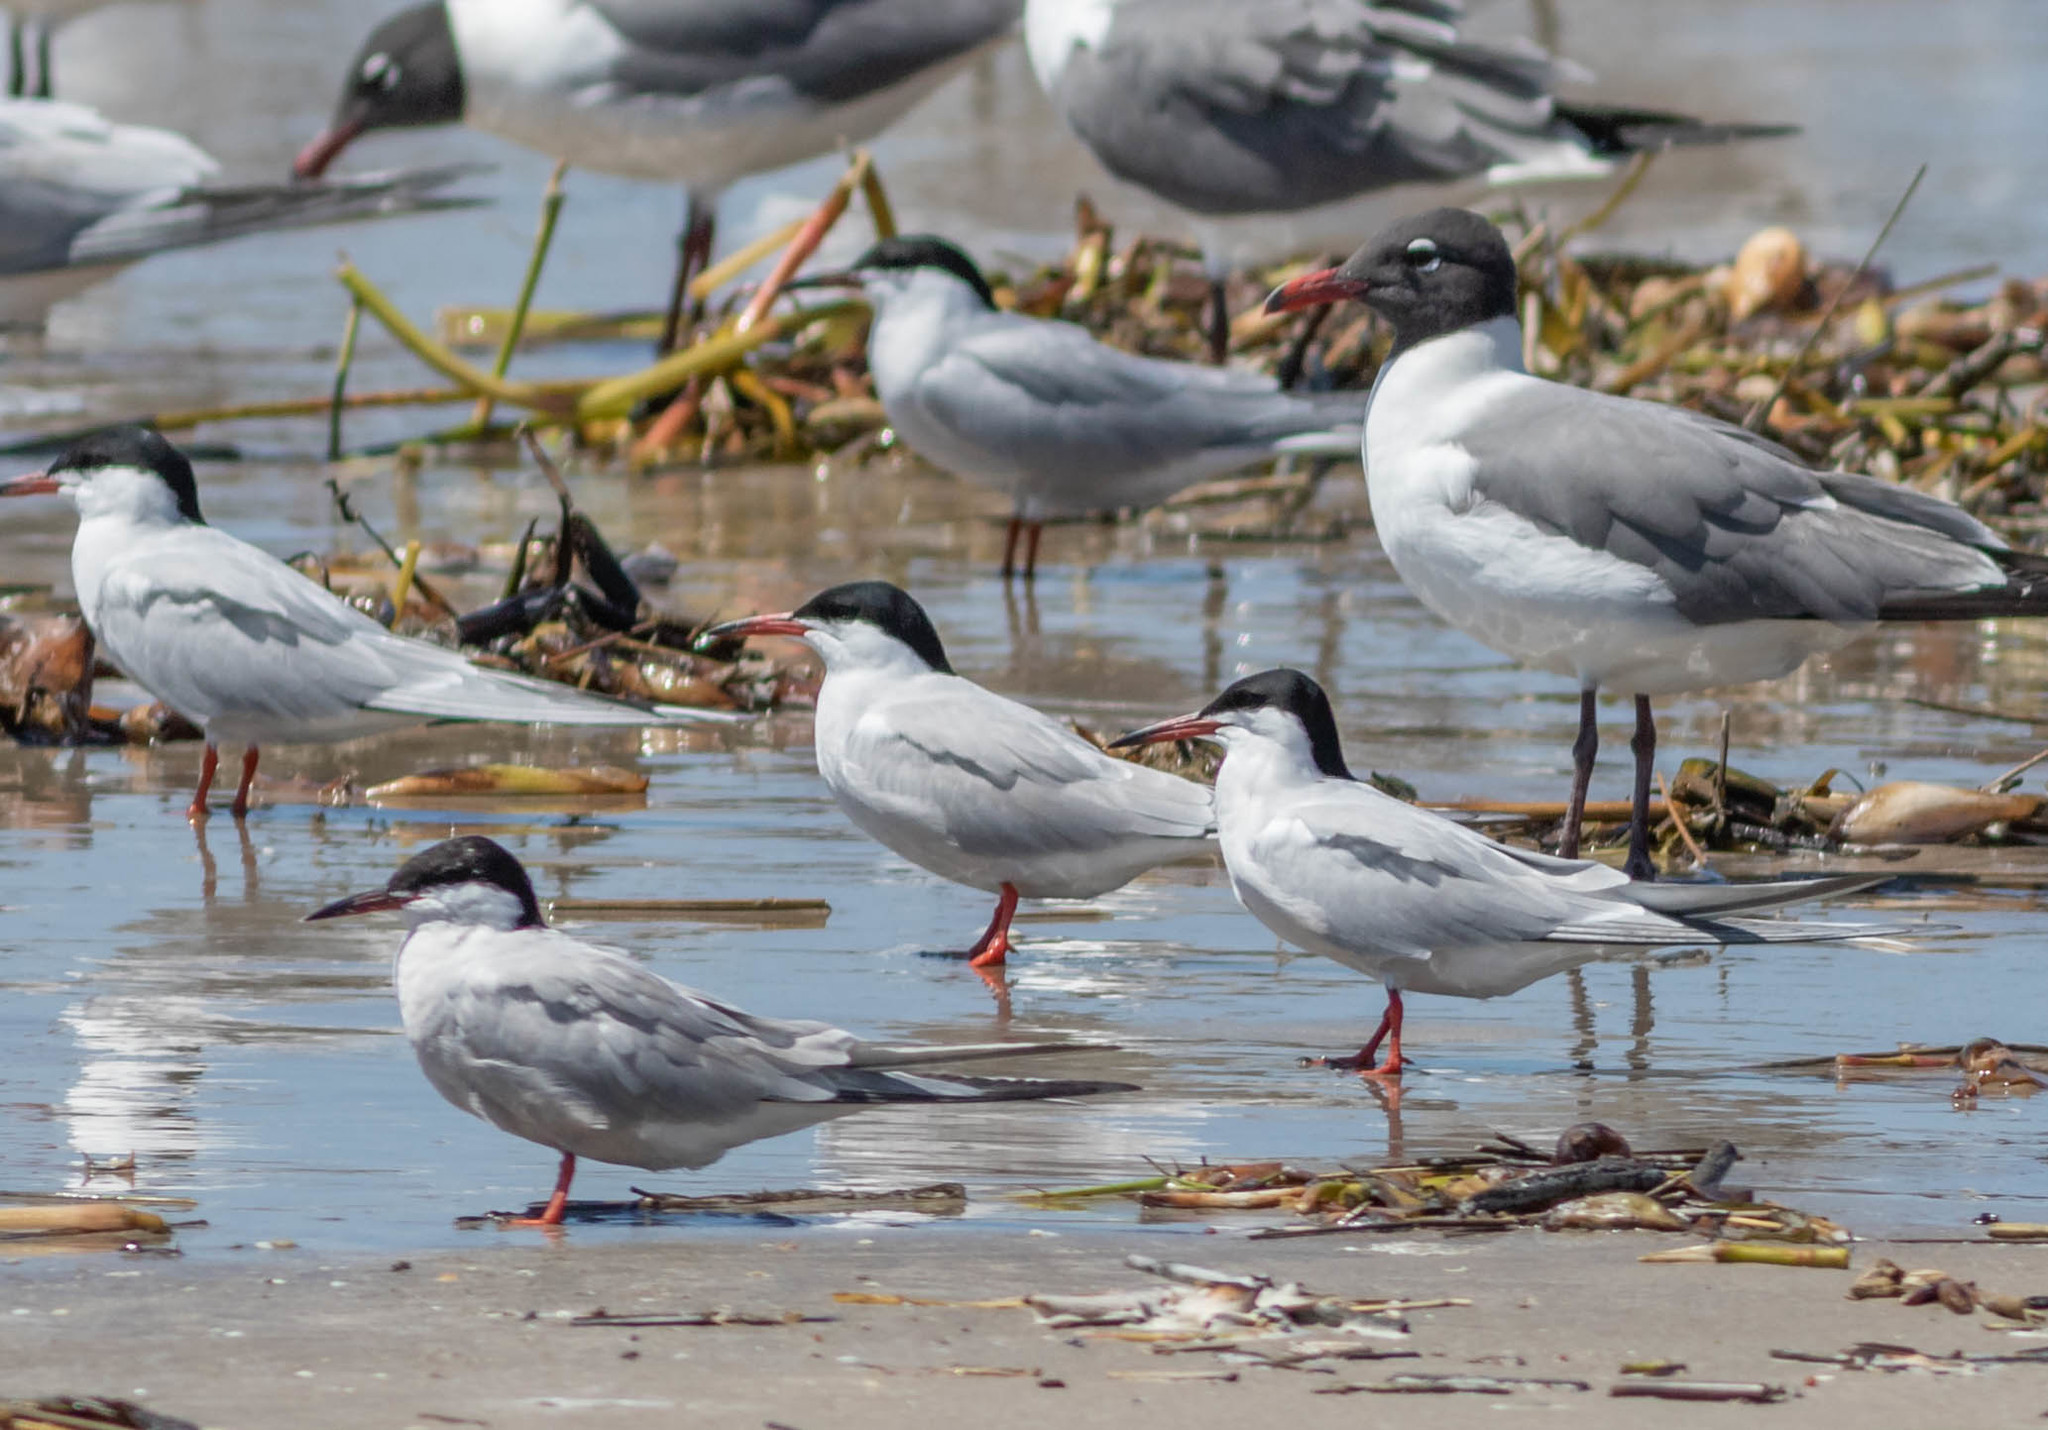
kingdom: Animalia
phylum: Chordata
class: Aves
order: Charadriiformes
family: Laridae
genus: Sterna
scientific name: Sterna hirundo
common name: Common tern
